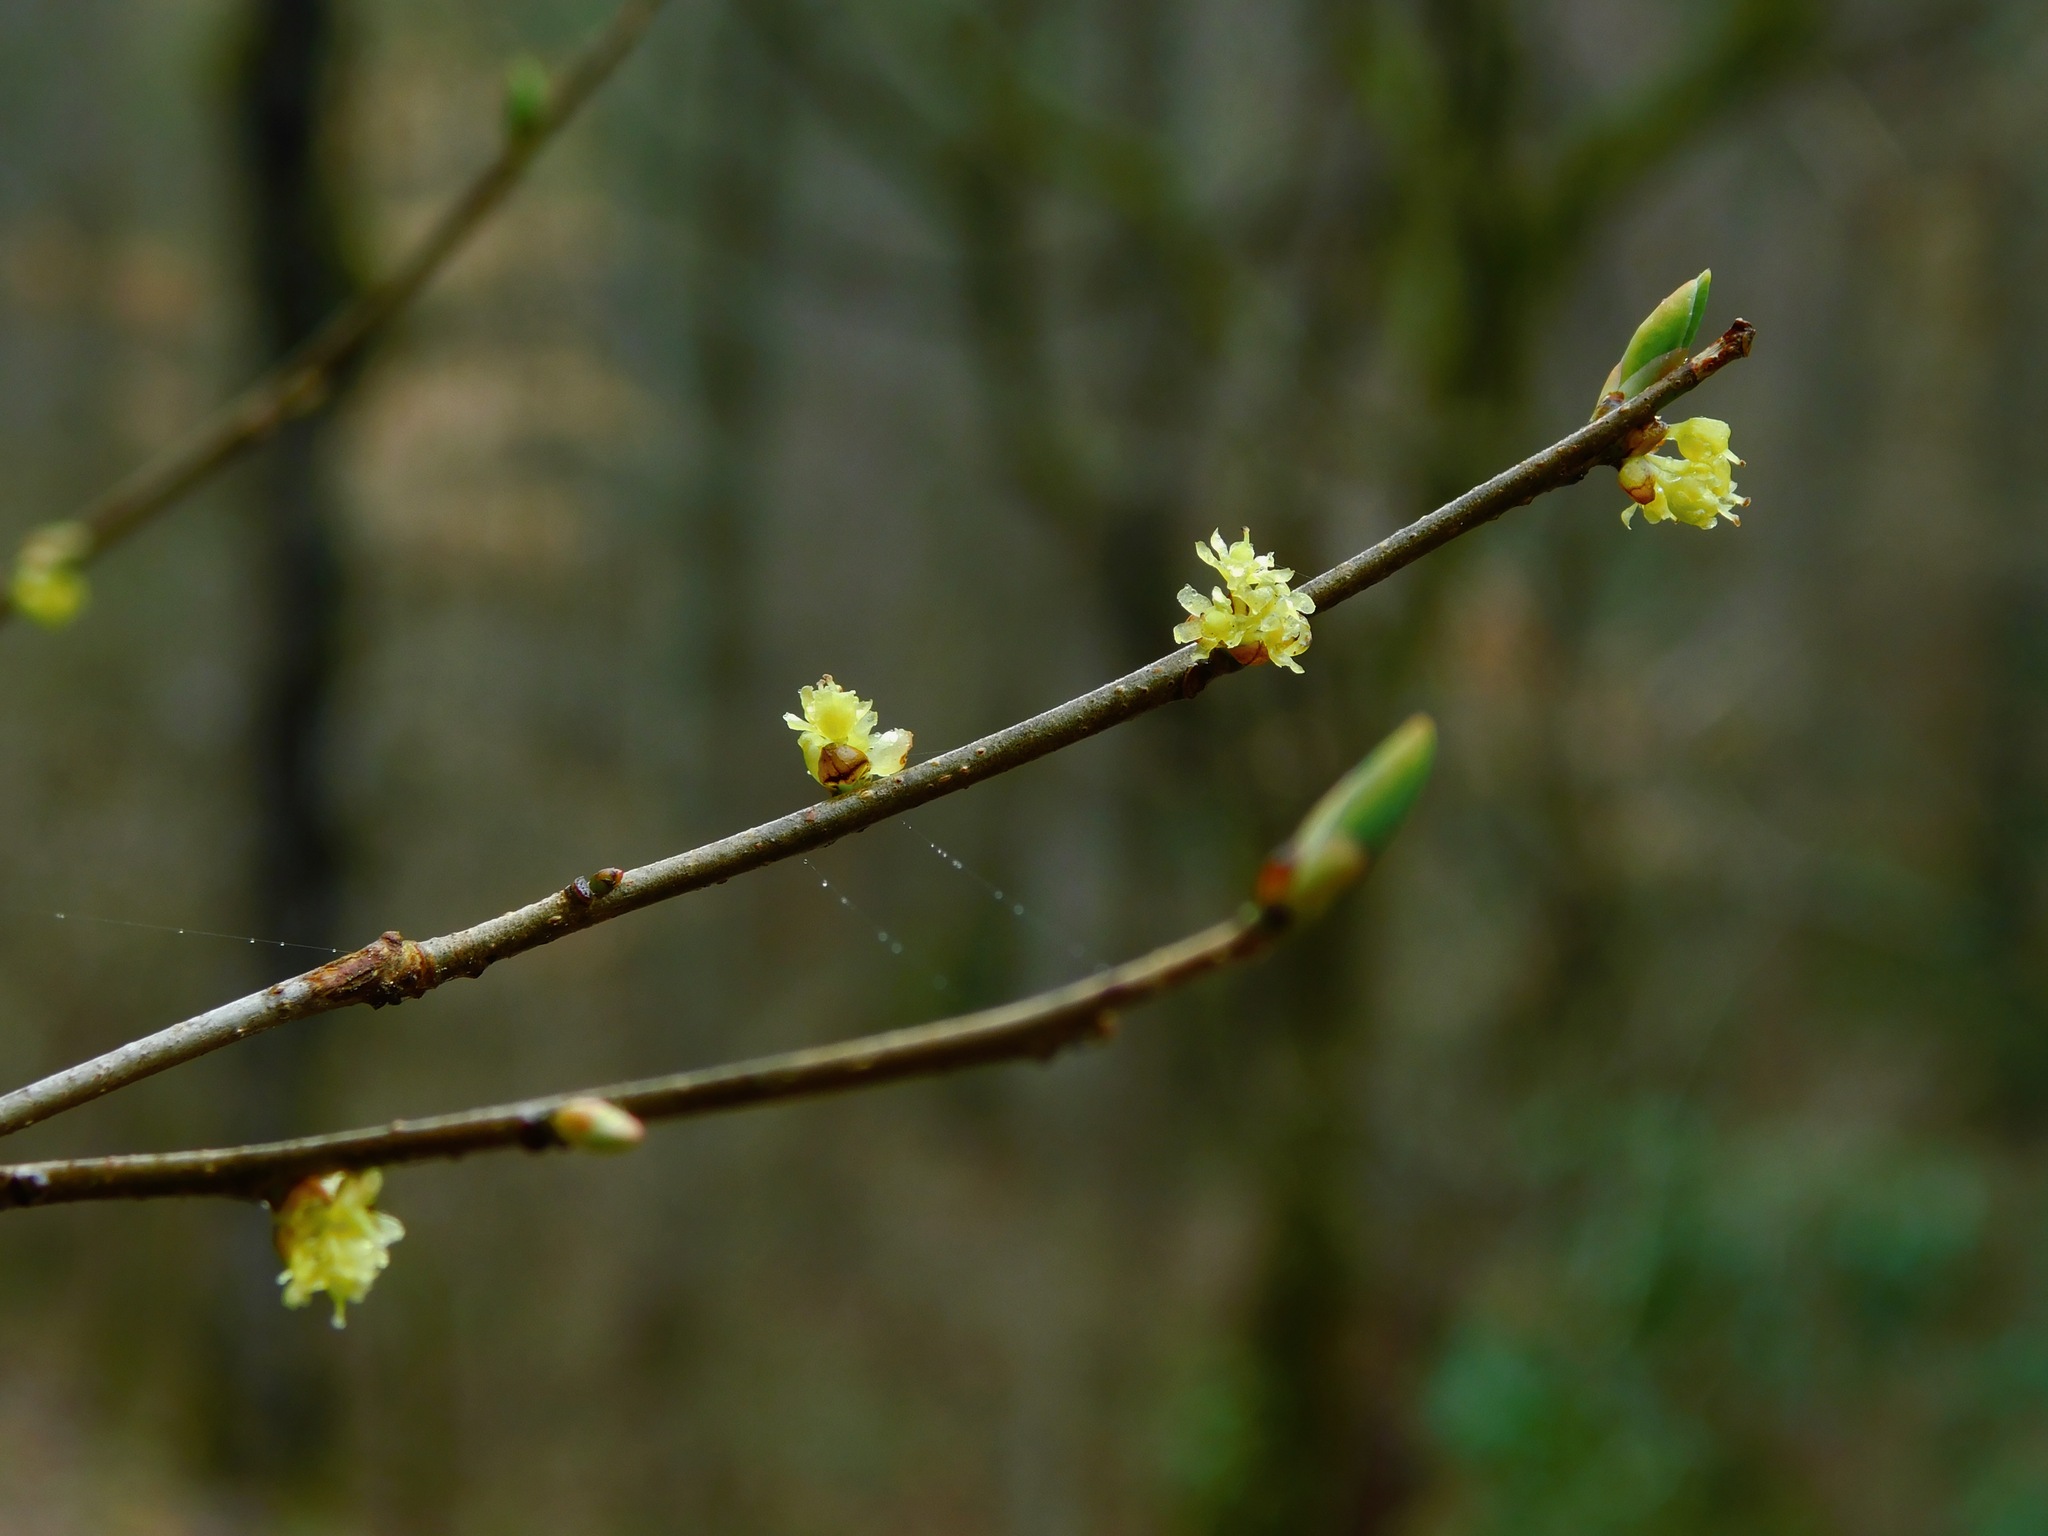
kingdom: Plantae
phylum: Tracheophyta
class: Magnoliopsida
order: Laurales
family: Lauraceae
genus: Lindera
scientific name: Lindera benzoin
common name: Spicebush
